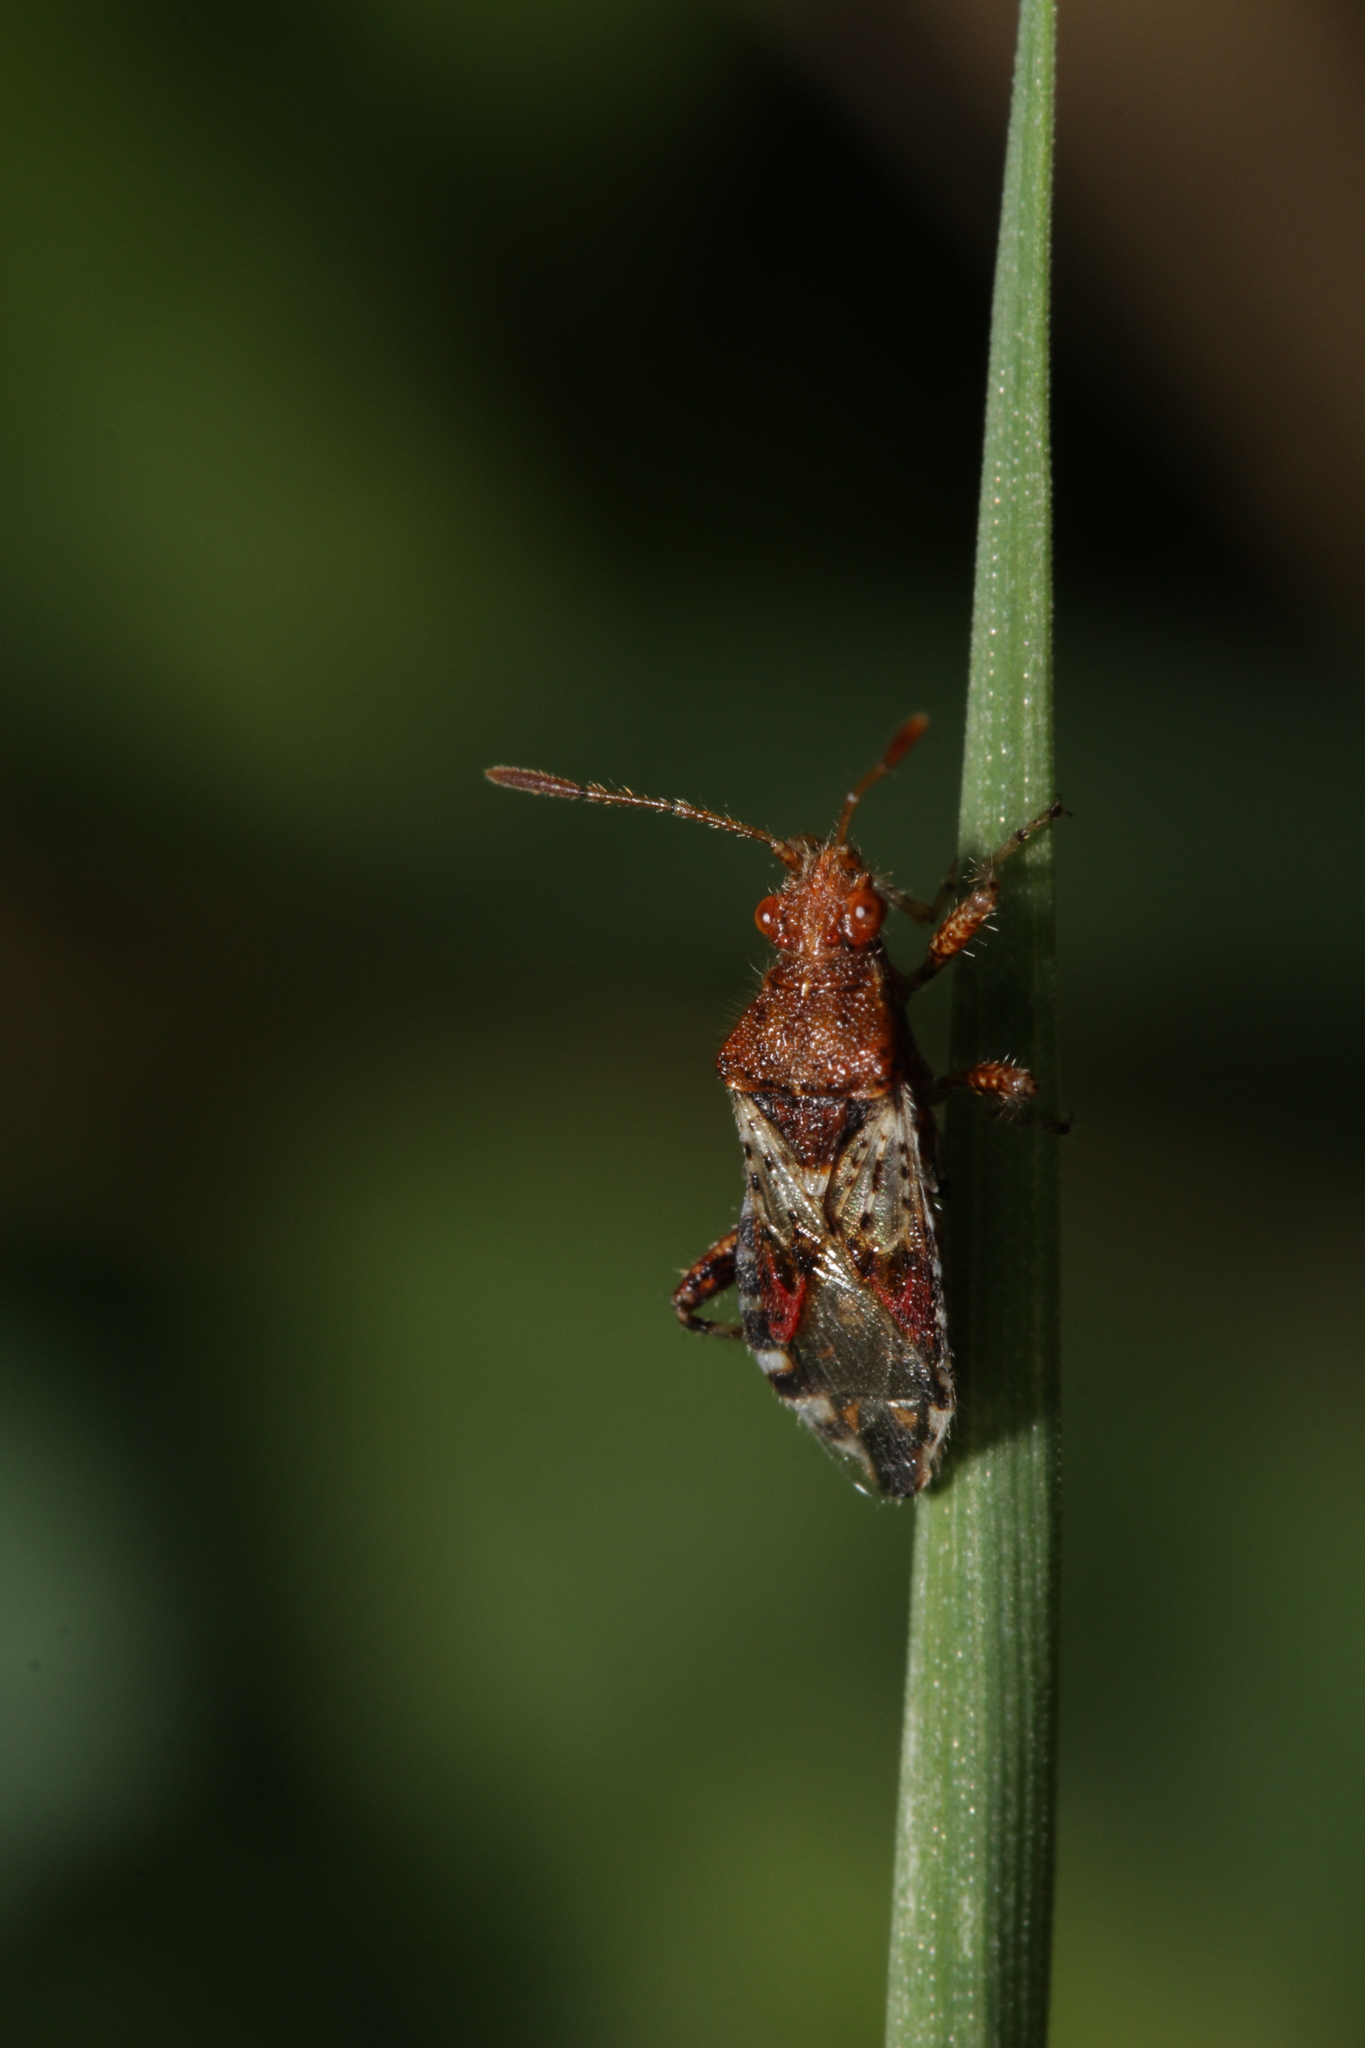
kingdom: Animalia
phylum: Arthropoda
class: Insecta
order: Hemiptera
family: Rhopalidae
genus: Rhopalus
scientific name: Rhopalus subrufus
